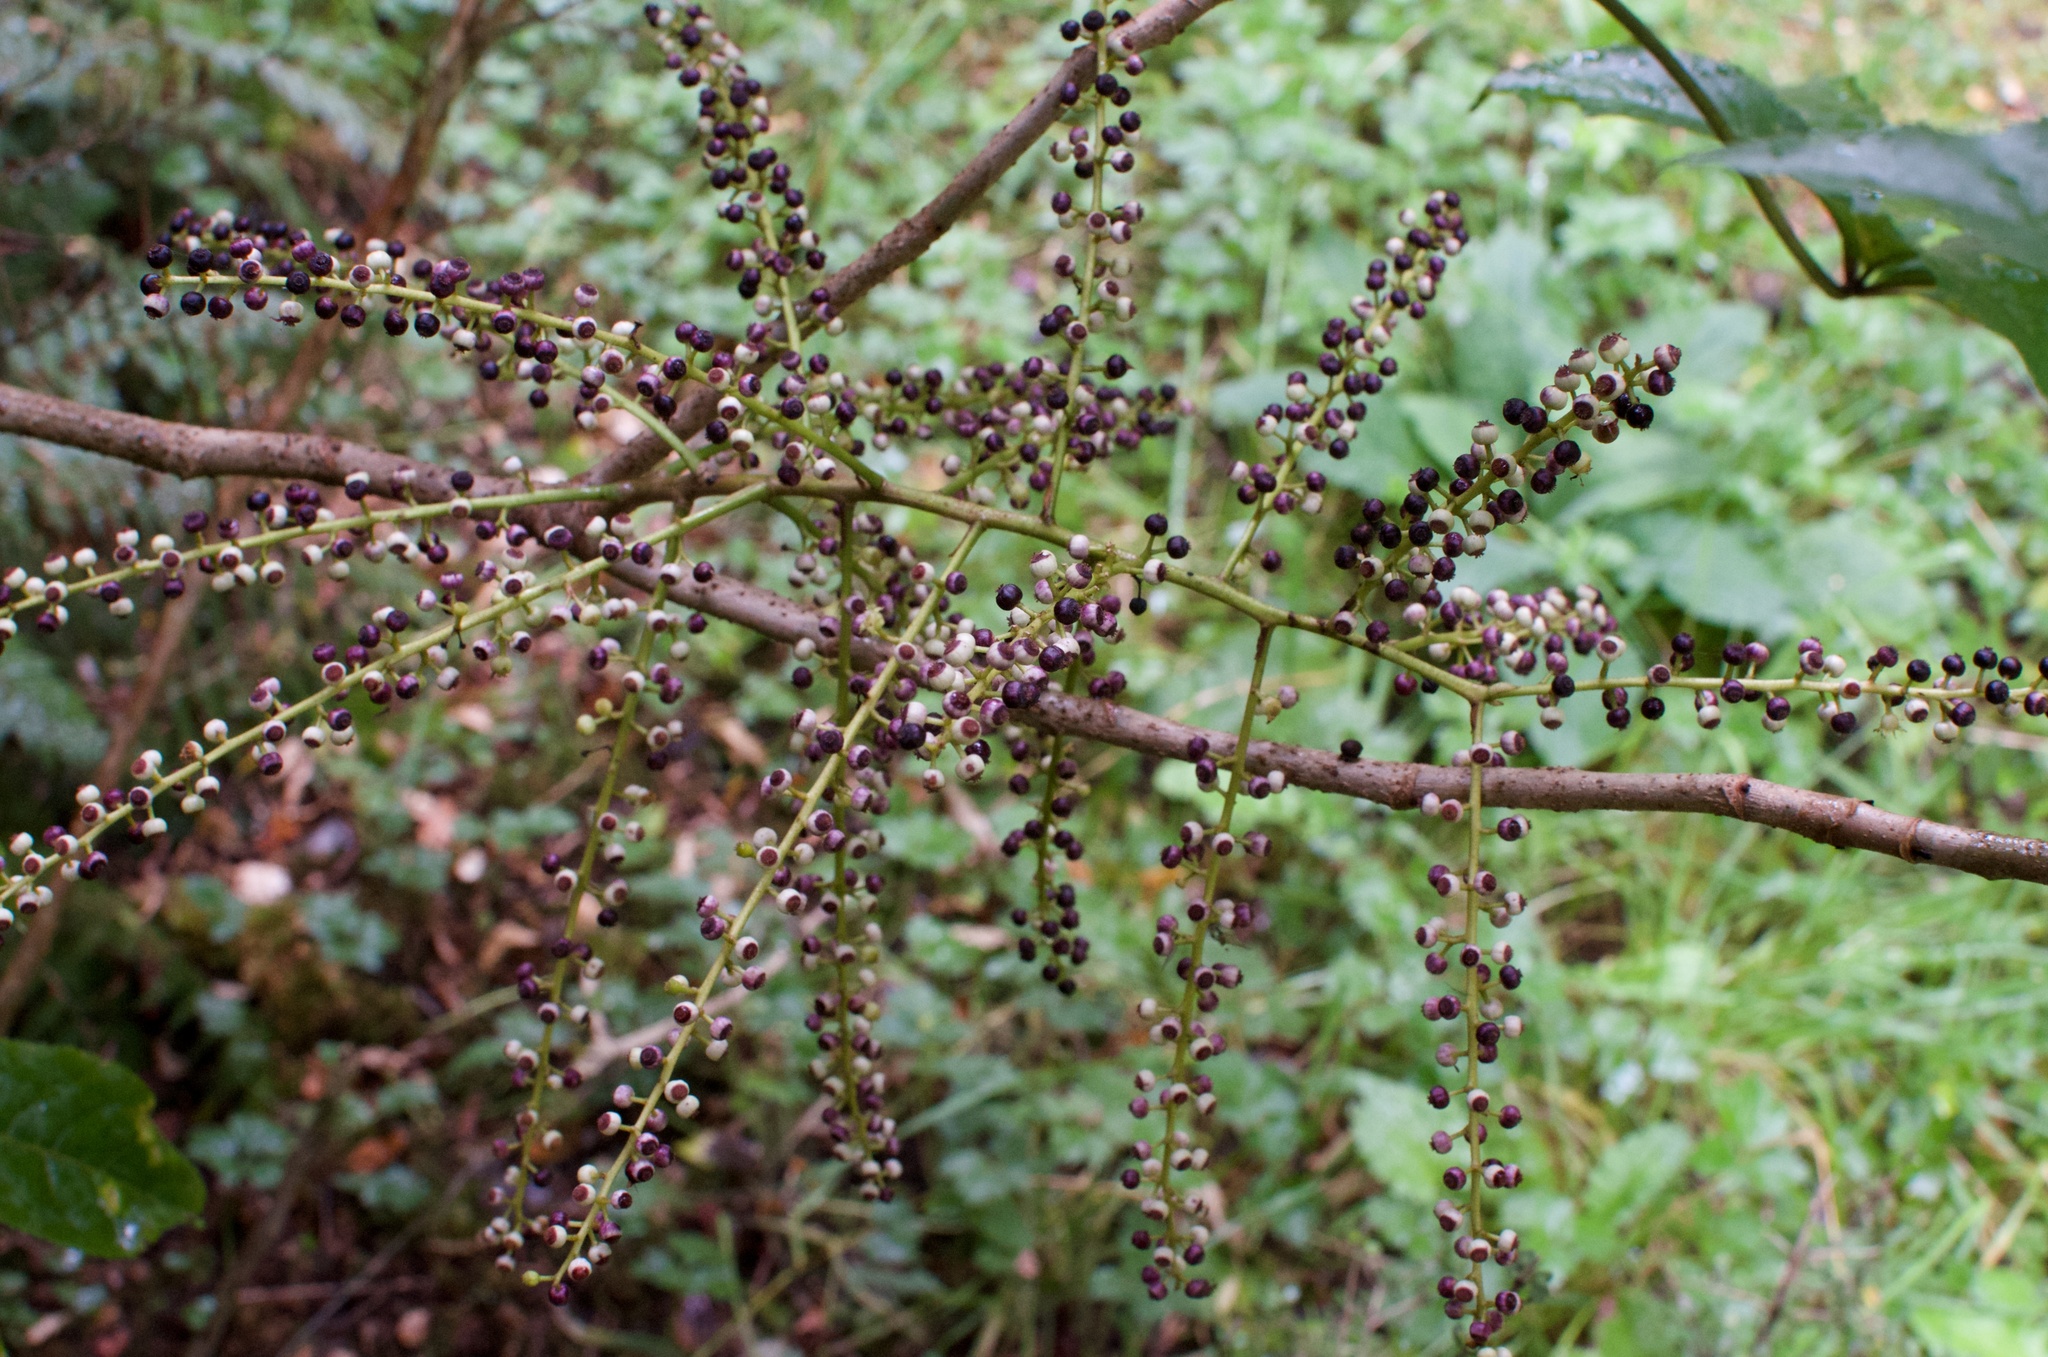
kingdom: Plantae
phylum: Tracheophyta
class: Magnoliopsida
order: Apiales
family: Araliaceae
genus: Schefflera
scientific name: Schefflera digitata
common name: Pate
